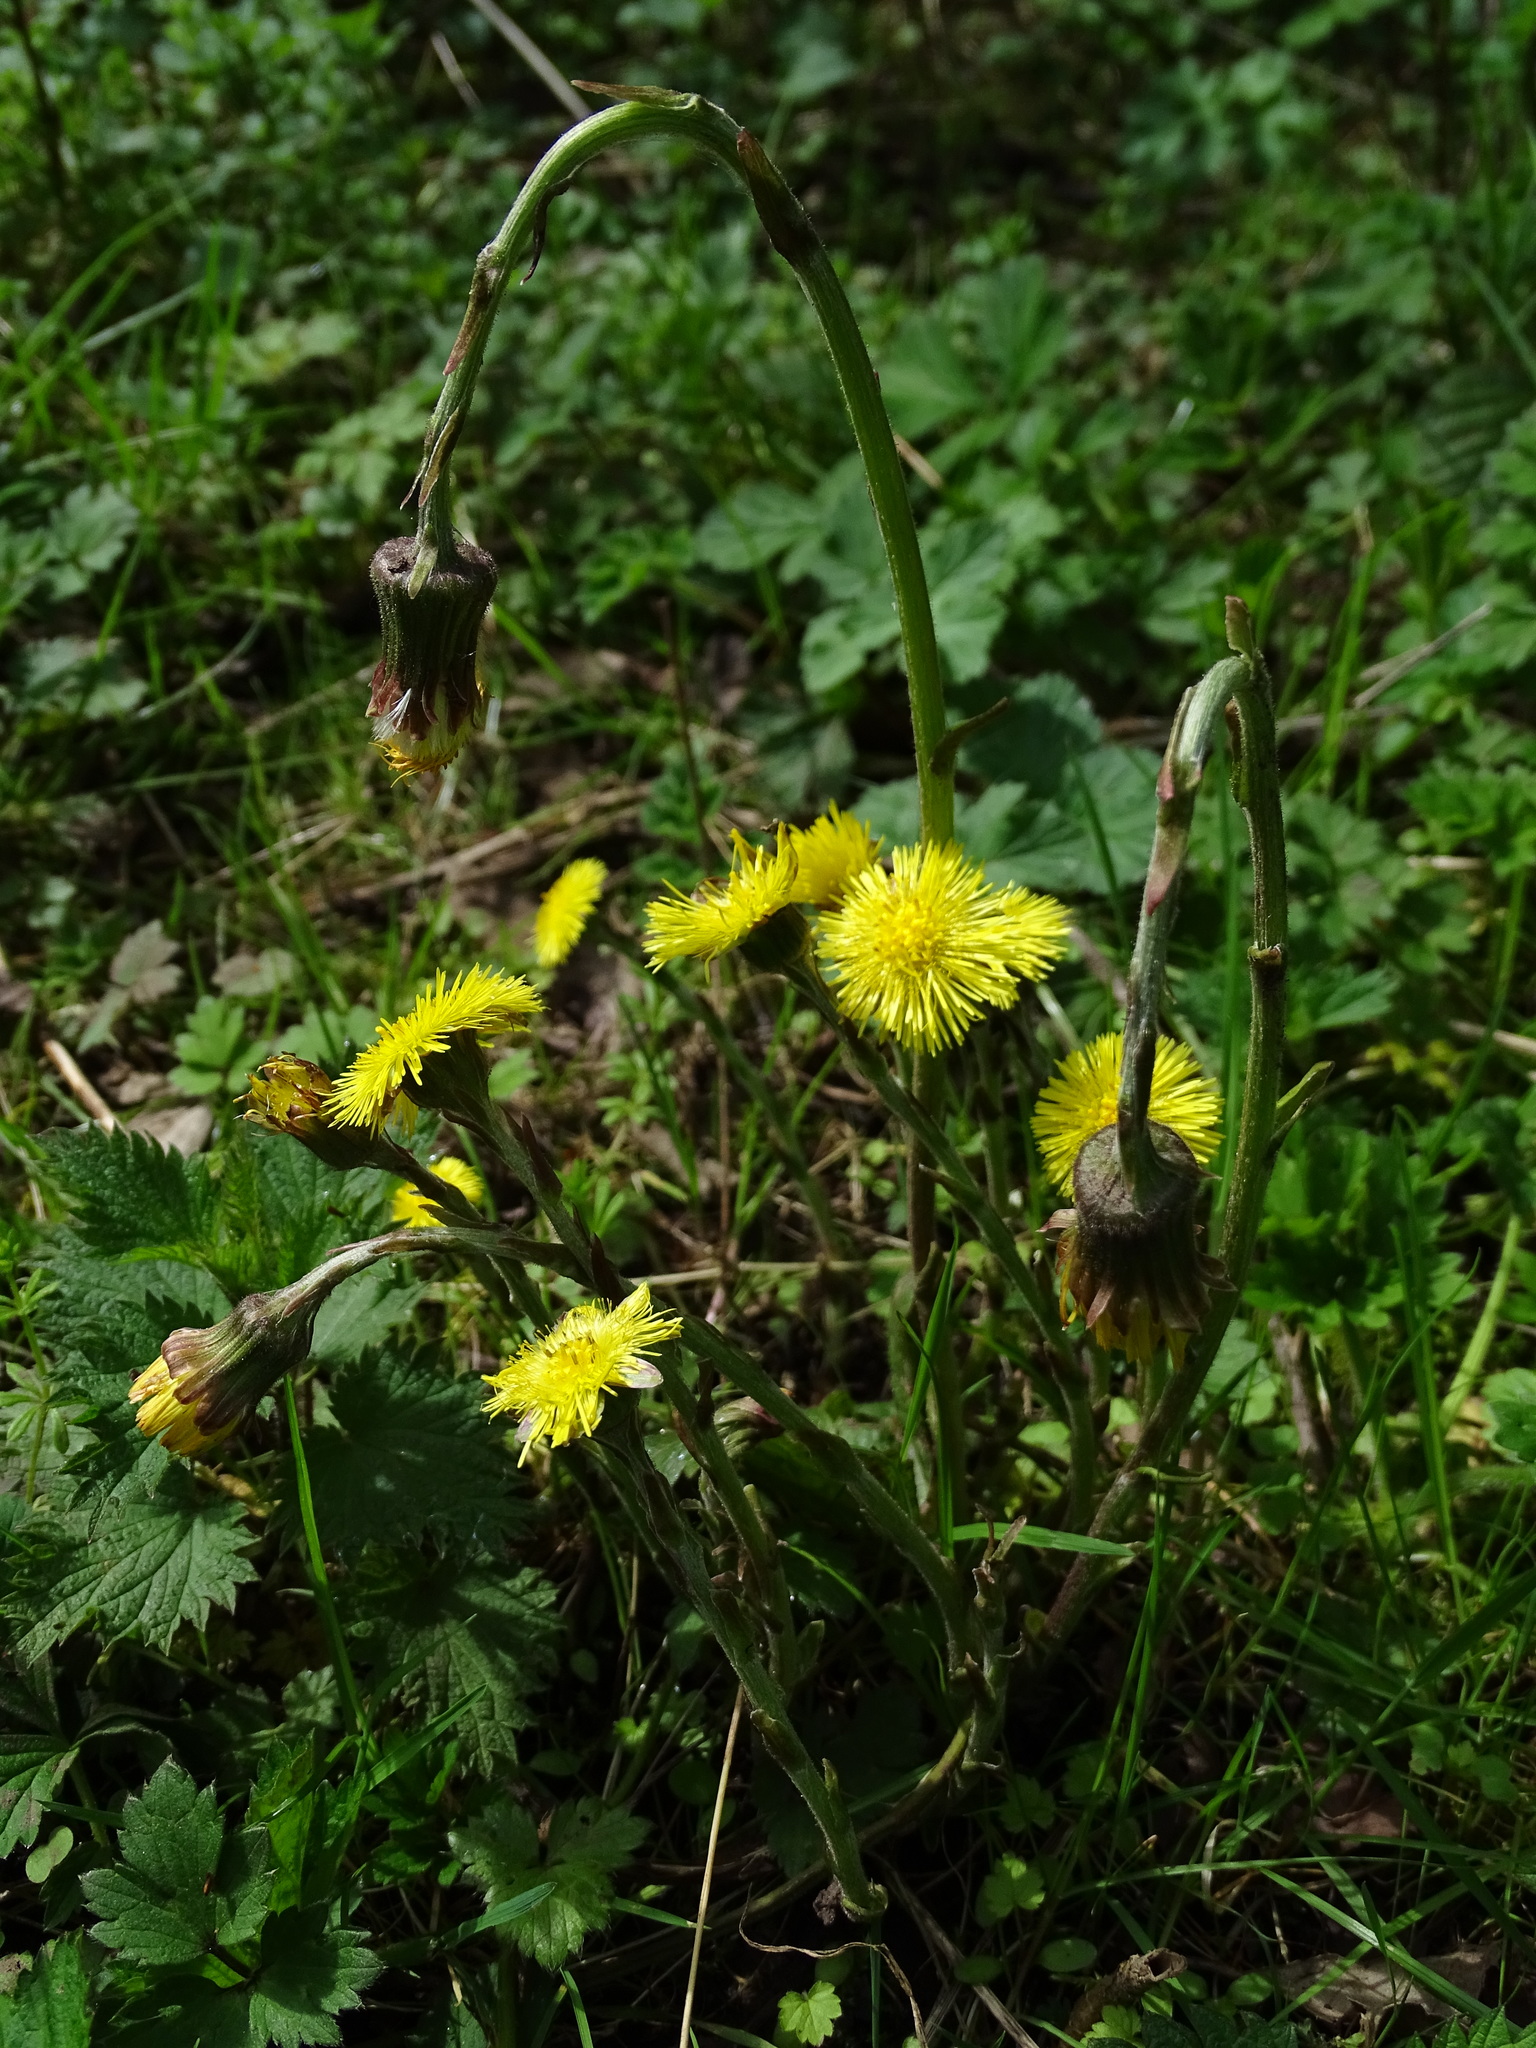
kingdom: Plantae
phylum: Tracheophyta
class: Magnoliopsida
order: Asterales
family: Asteraceae
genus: Tussilago
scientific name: Tussilago farfara
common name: Coltsfoot
